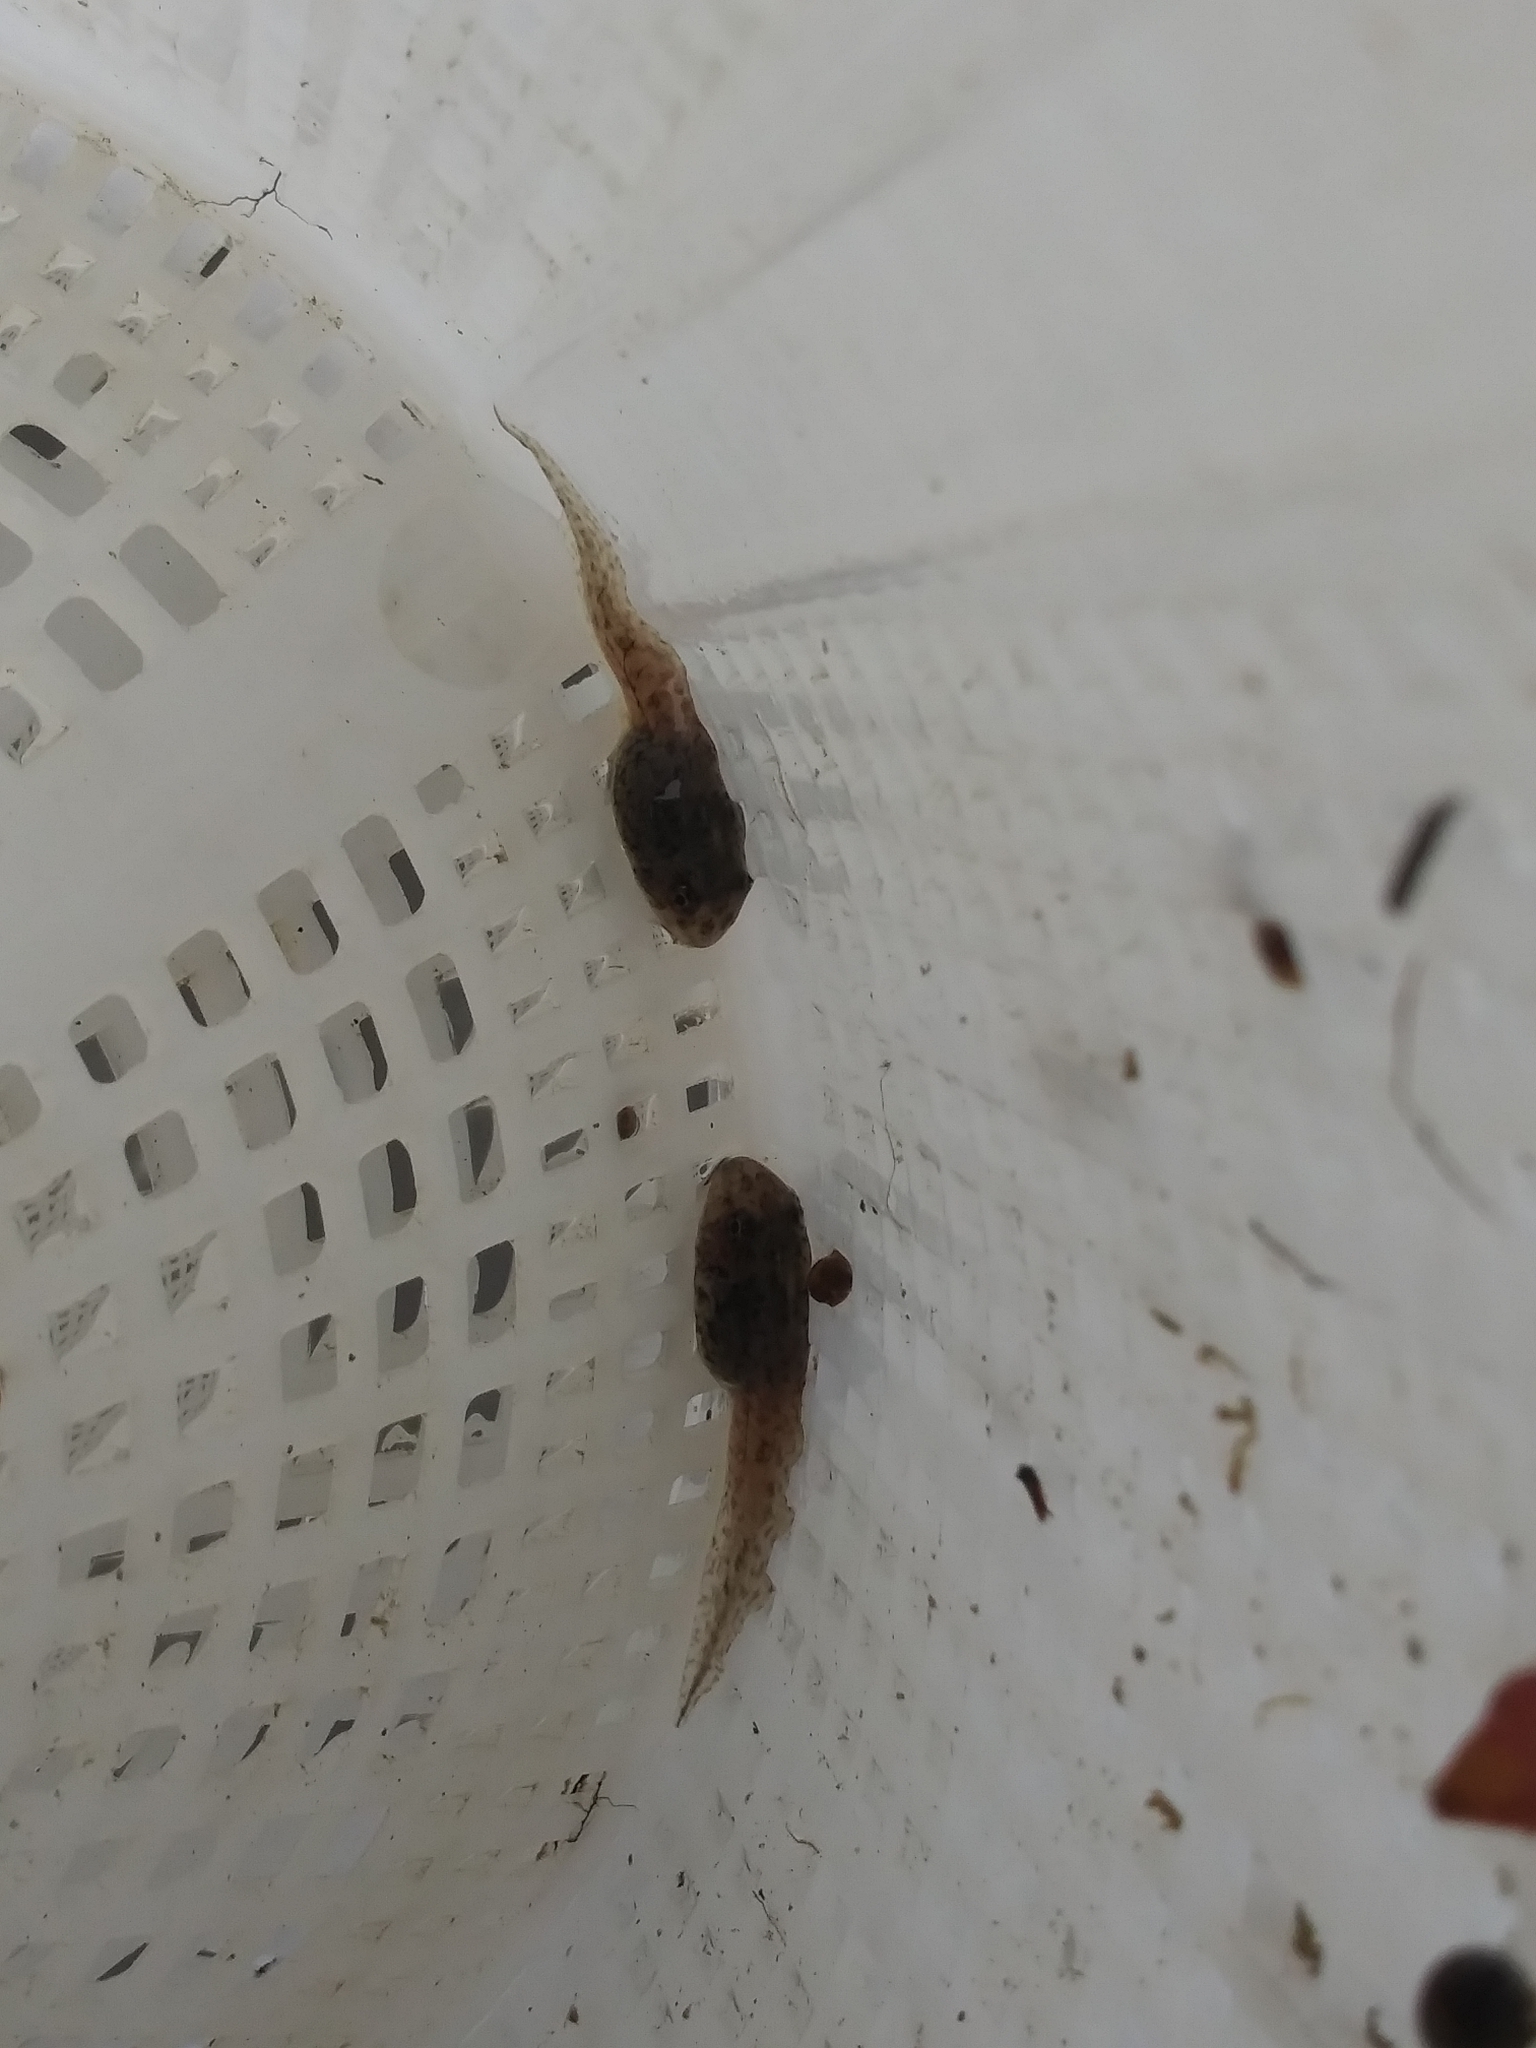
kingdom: Animalia
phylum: Chordata
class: Amphibia
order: Anura
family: Ranidae
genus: Lithobates
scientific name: Lithobates sphenocephalus
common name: Southern leopard frog
